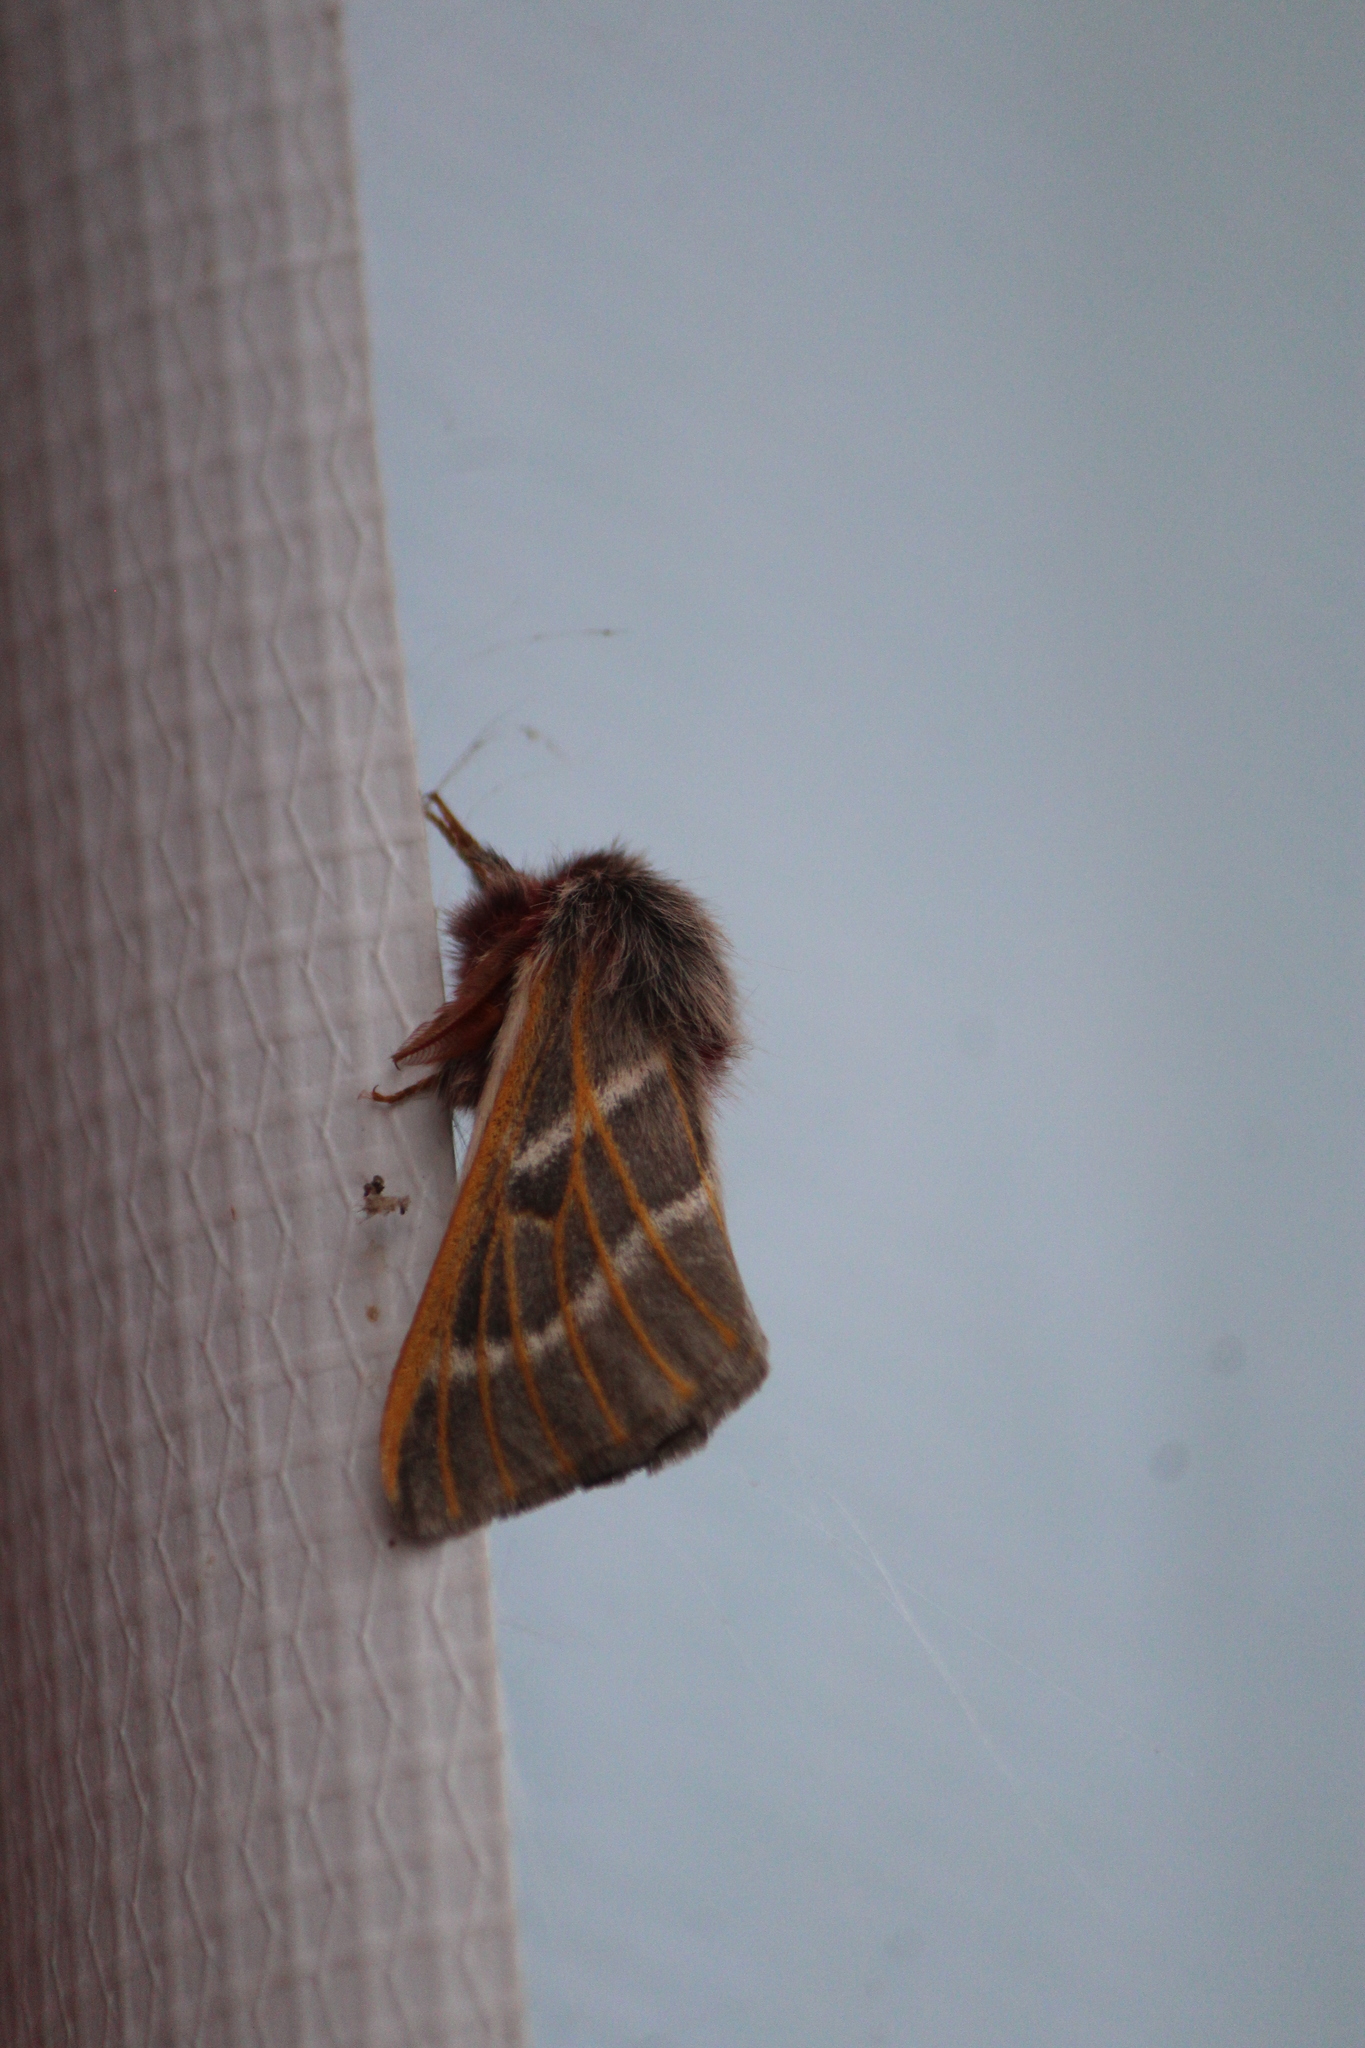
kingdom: Animalia
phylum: Arthropoda
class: Insecta
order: Lepidoptera
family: Saturniidae
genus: Hemileuca
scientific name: Hemileuca rubridorsa
